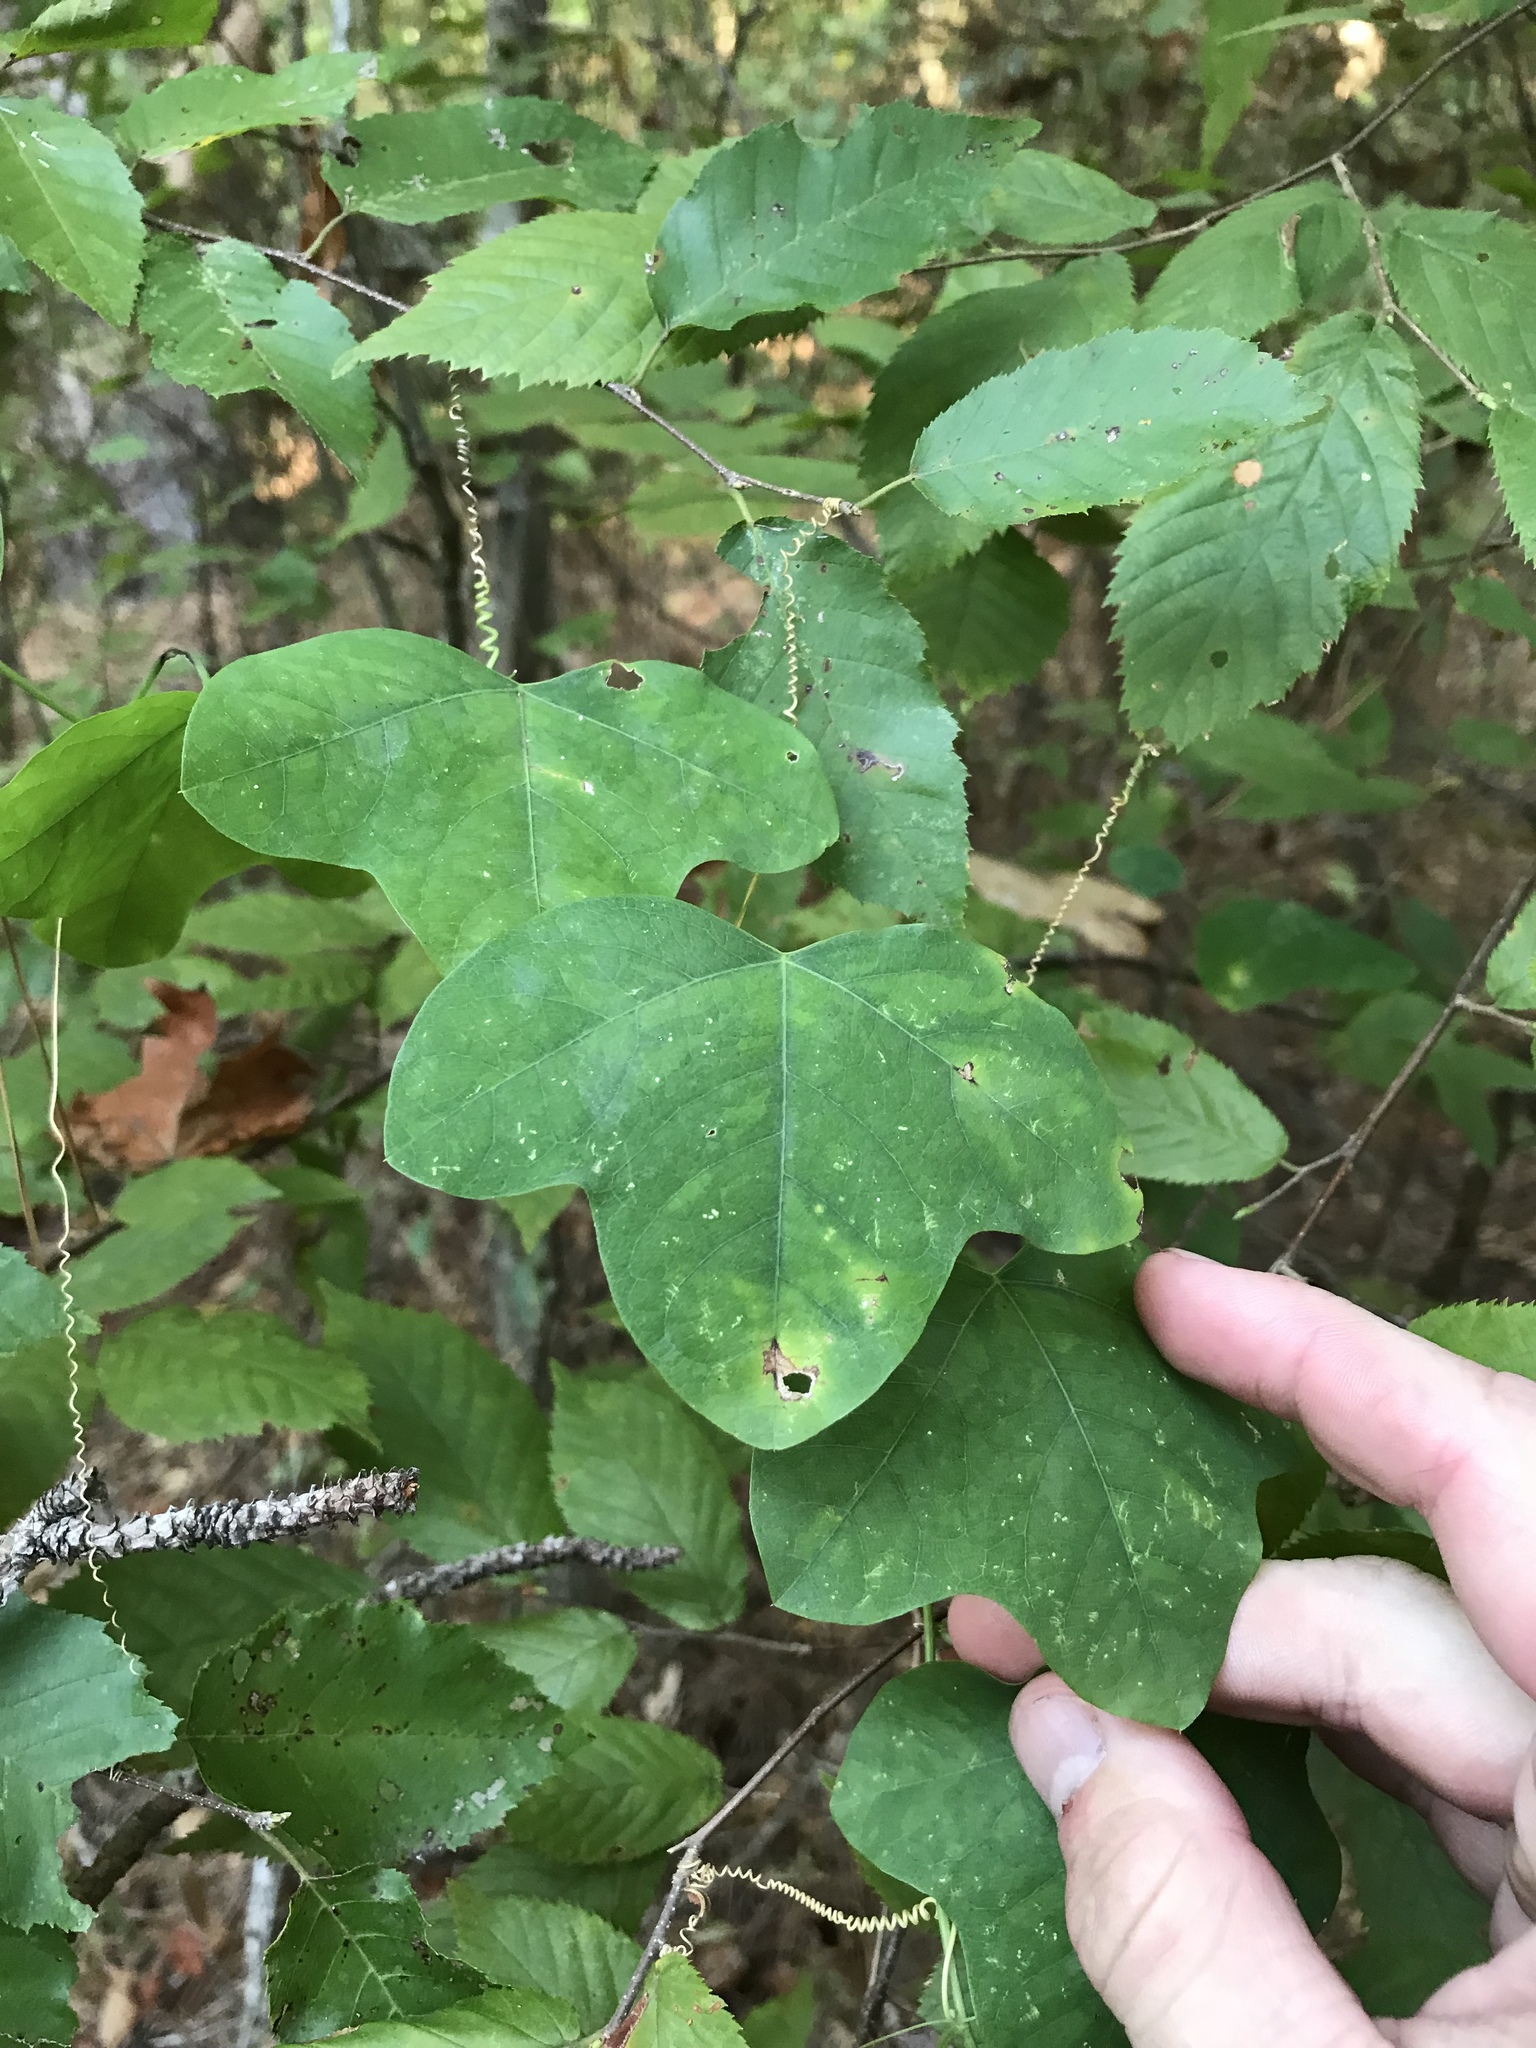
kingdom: Plantae
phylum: Tracheophyta
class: Magnoliopsida
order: Malpighiales
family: Passifloraceae
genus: Passiflora
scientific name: Passiflora lutea
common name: Yellow passionflower
